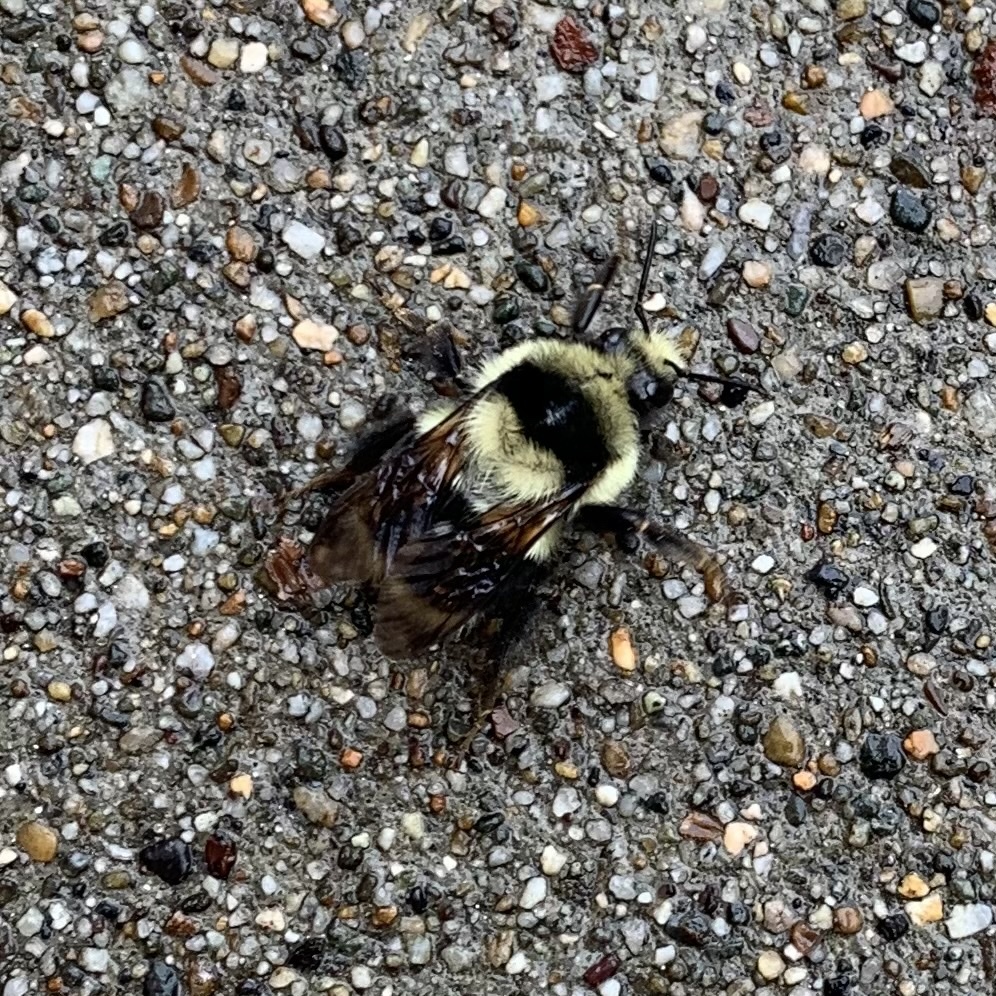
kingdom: Animalia
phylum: Arthropoda
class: Insecta
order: Hymenoptera
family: Apidae
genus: Bombus
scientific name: Bombus melanopygus
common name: Black tail bumble bee
